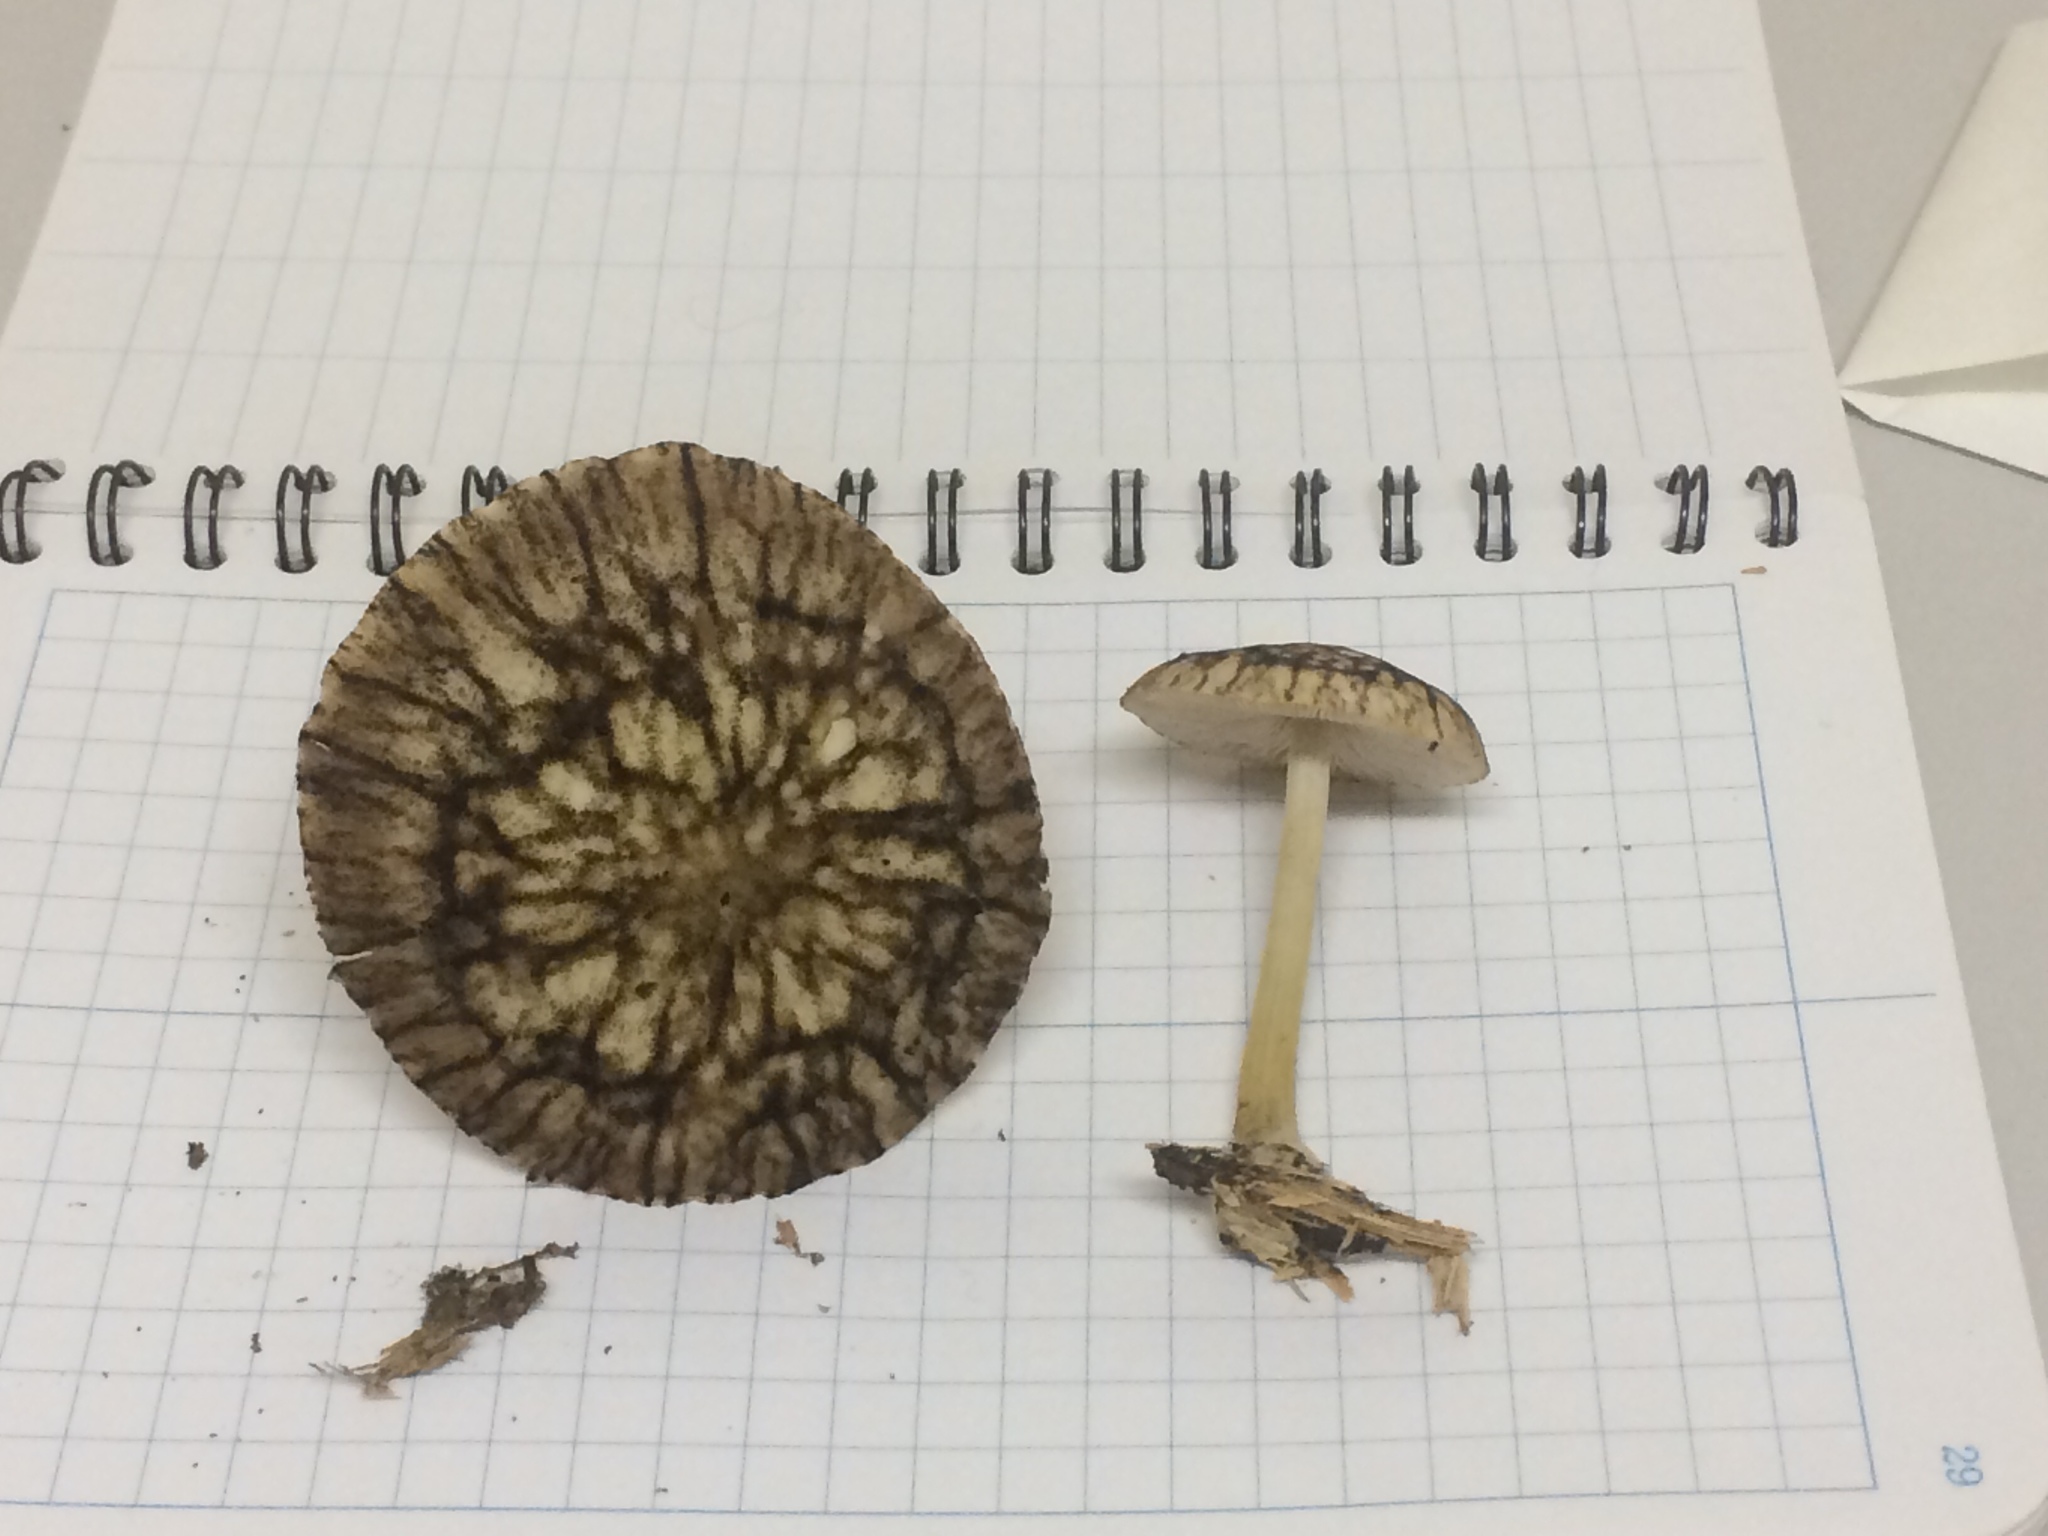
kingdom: Fungi
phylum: Basidiomycota
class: Agaricomycetes
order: Agaricales
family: Pluteaceae
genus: Pluteus
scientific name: Pluteus readiarum
